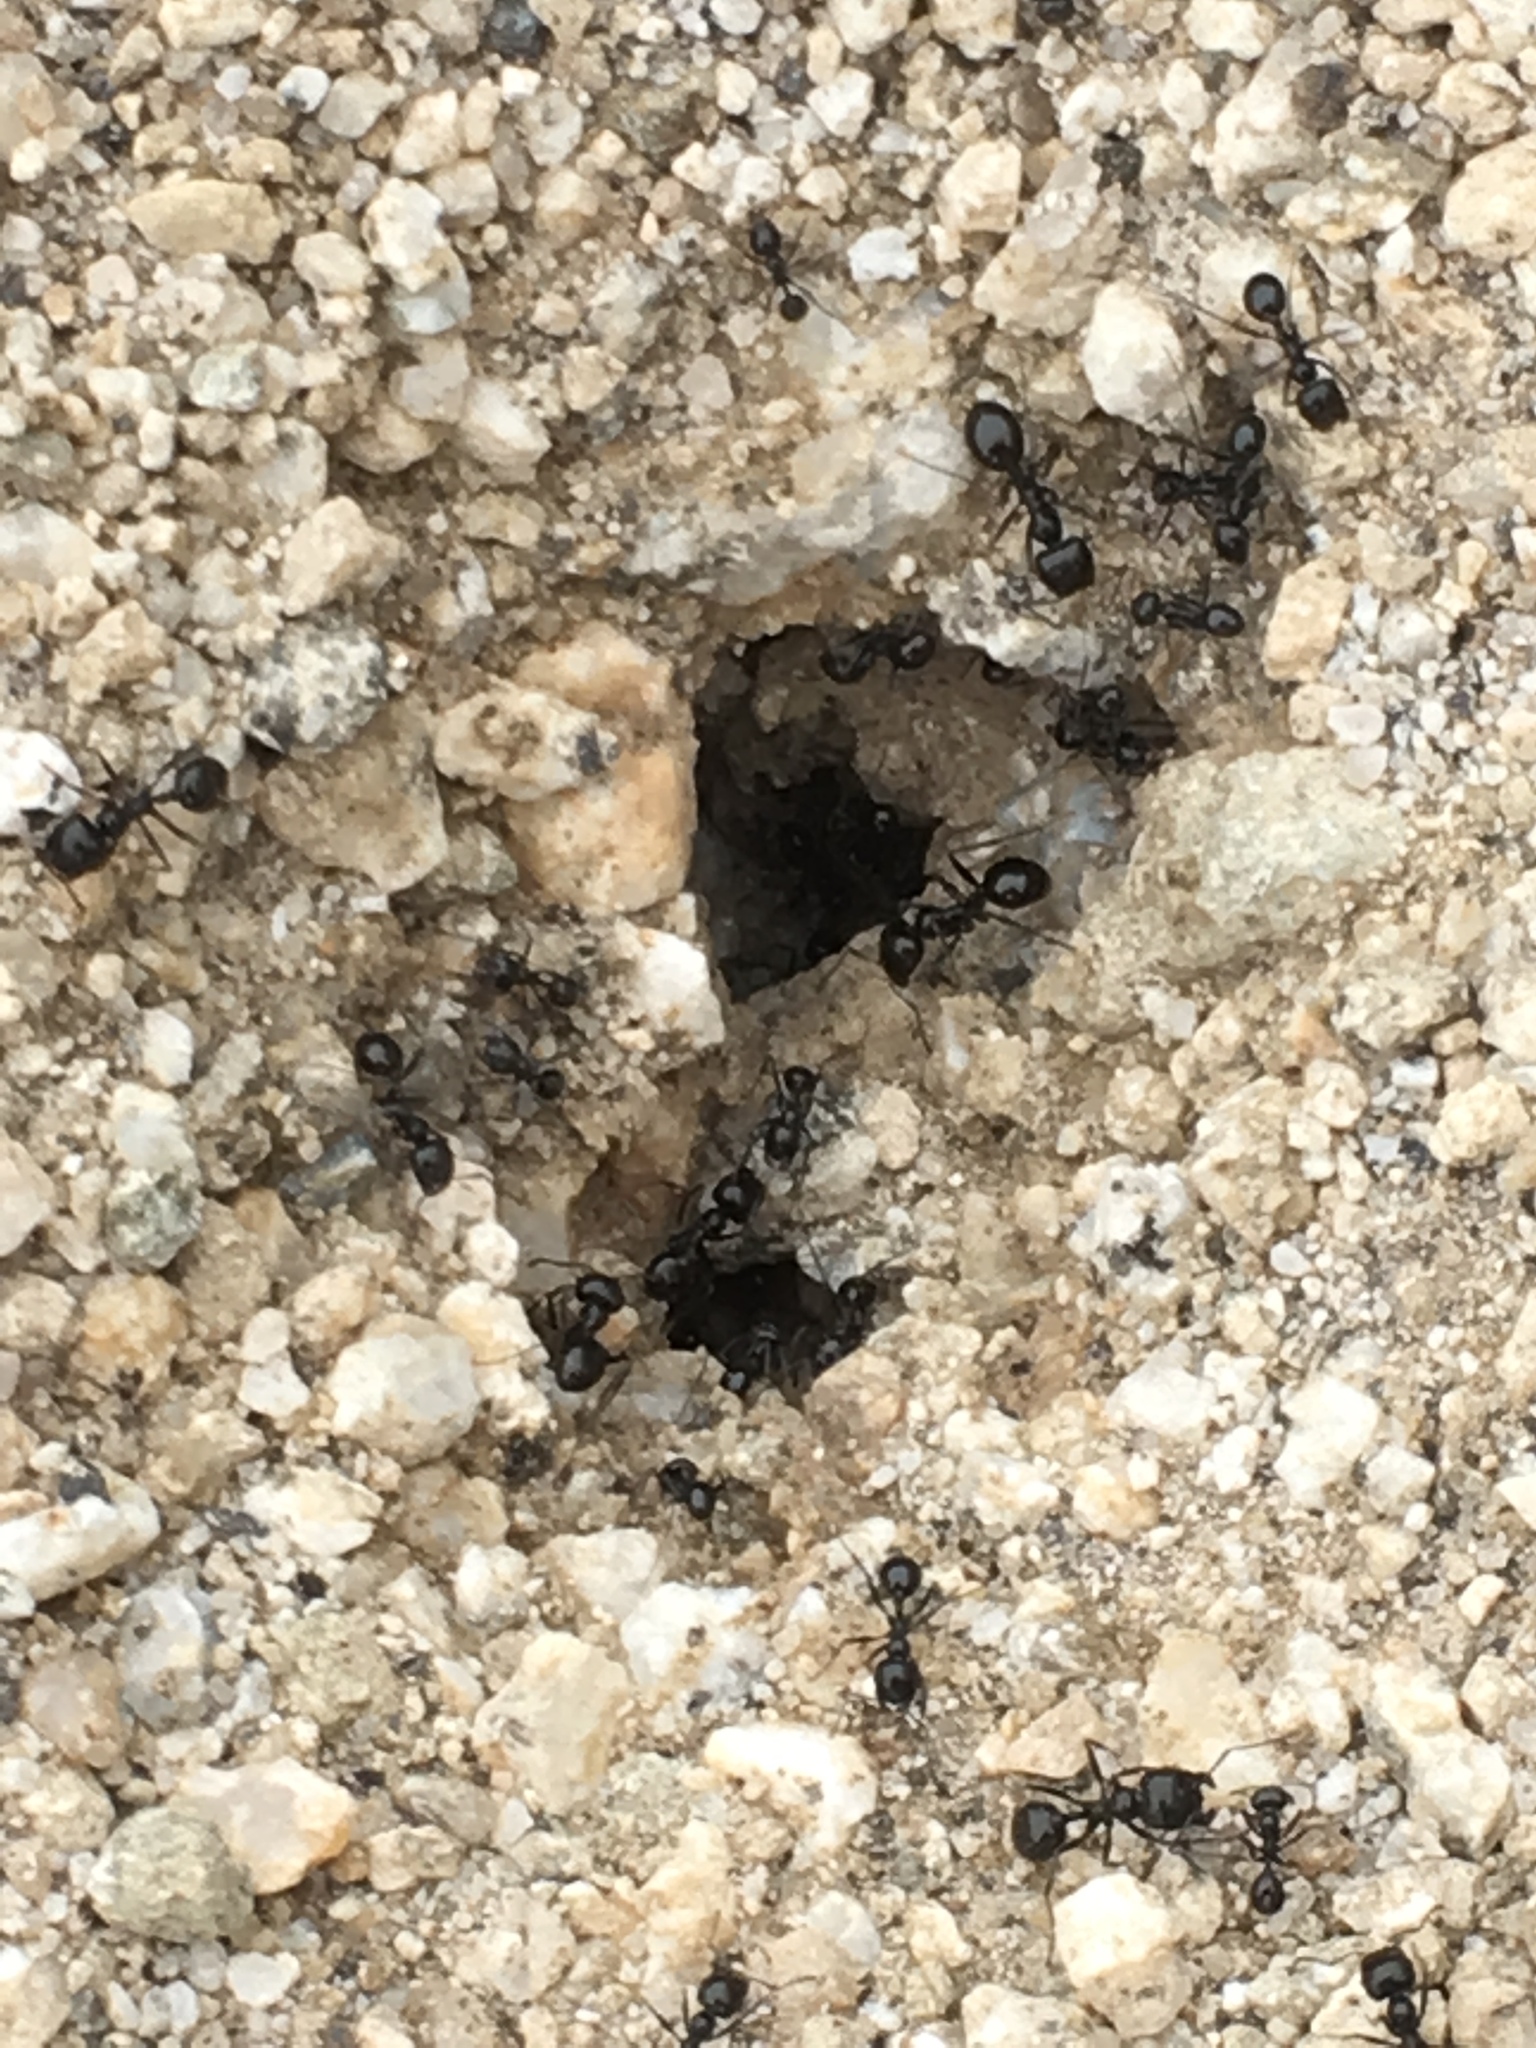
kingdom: Animalia
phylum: Arthropoda
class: Insecta
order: Hymenoptera
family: Formicidae
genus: Messor
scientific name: Messor pergandei
